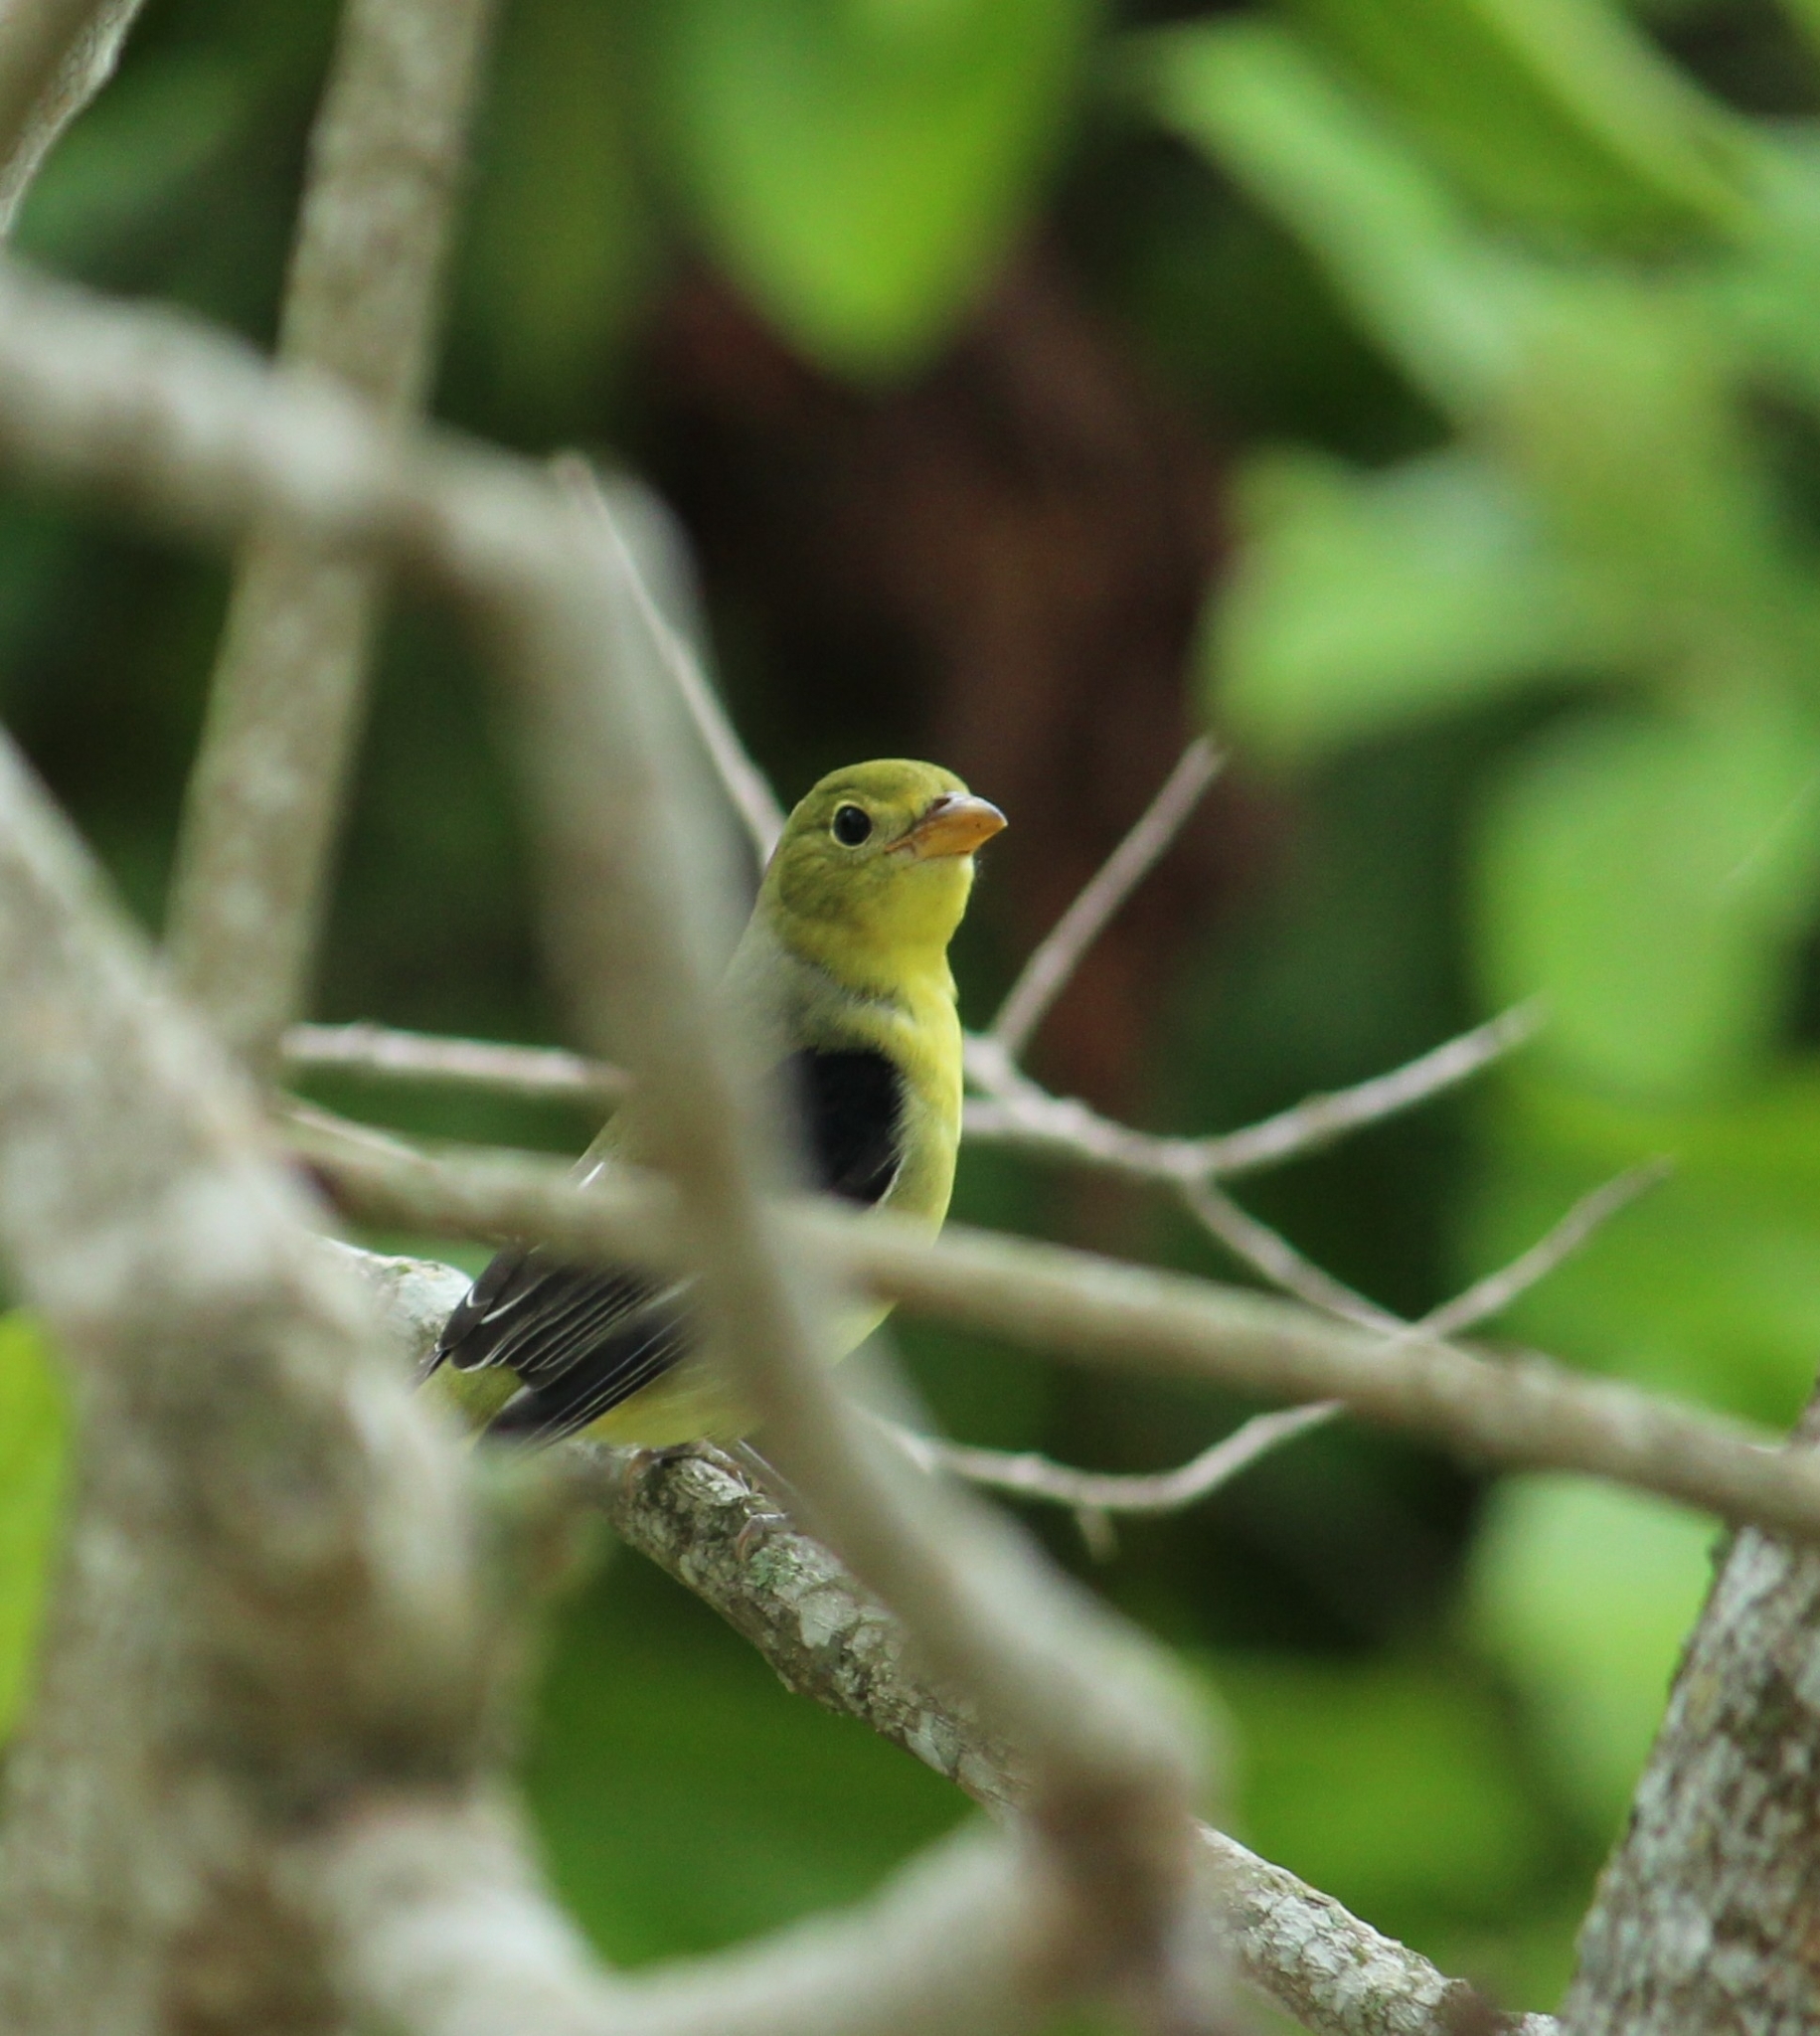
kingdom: Animalia
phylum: Chordata
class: Aves
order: Passeriformes
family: Cardinalidae
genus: Piranga
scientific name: Piranga olivacea
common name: Scarlet tanager
